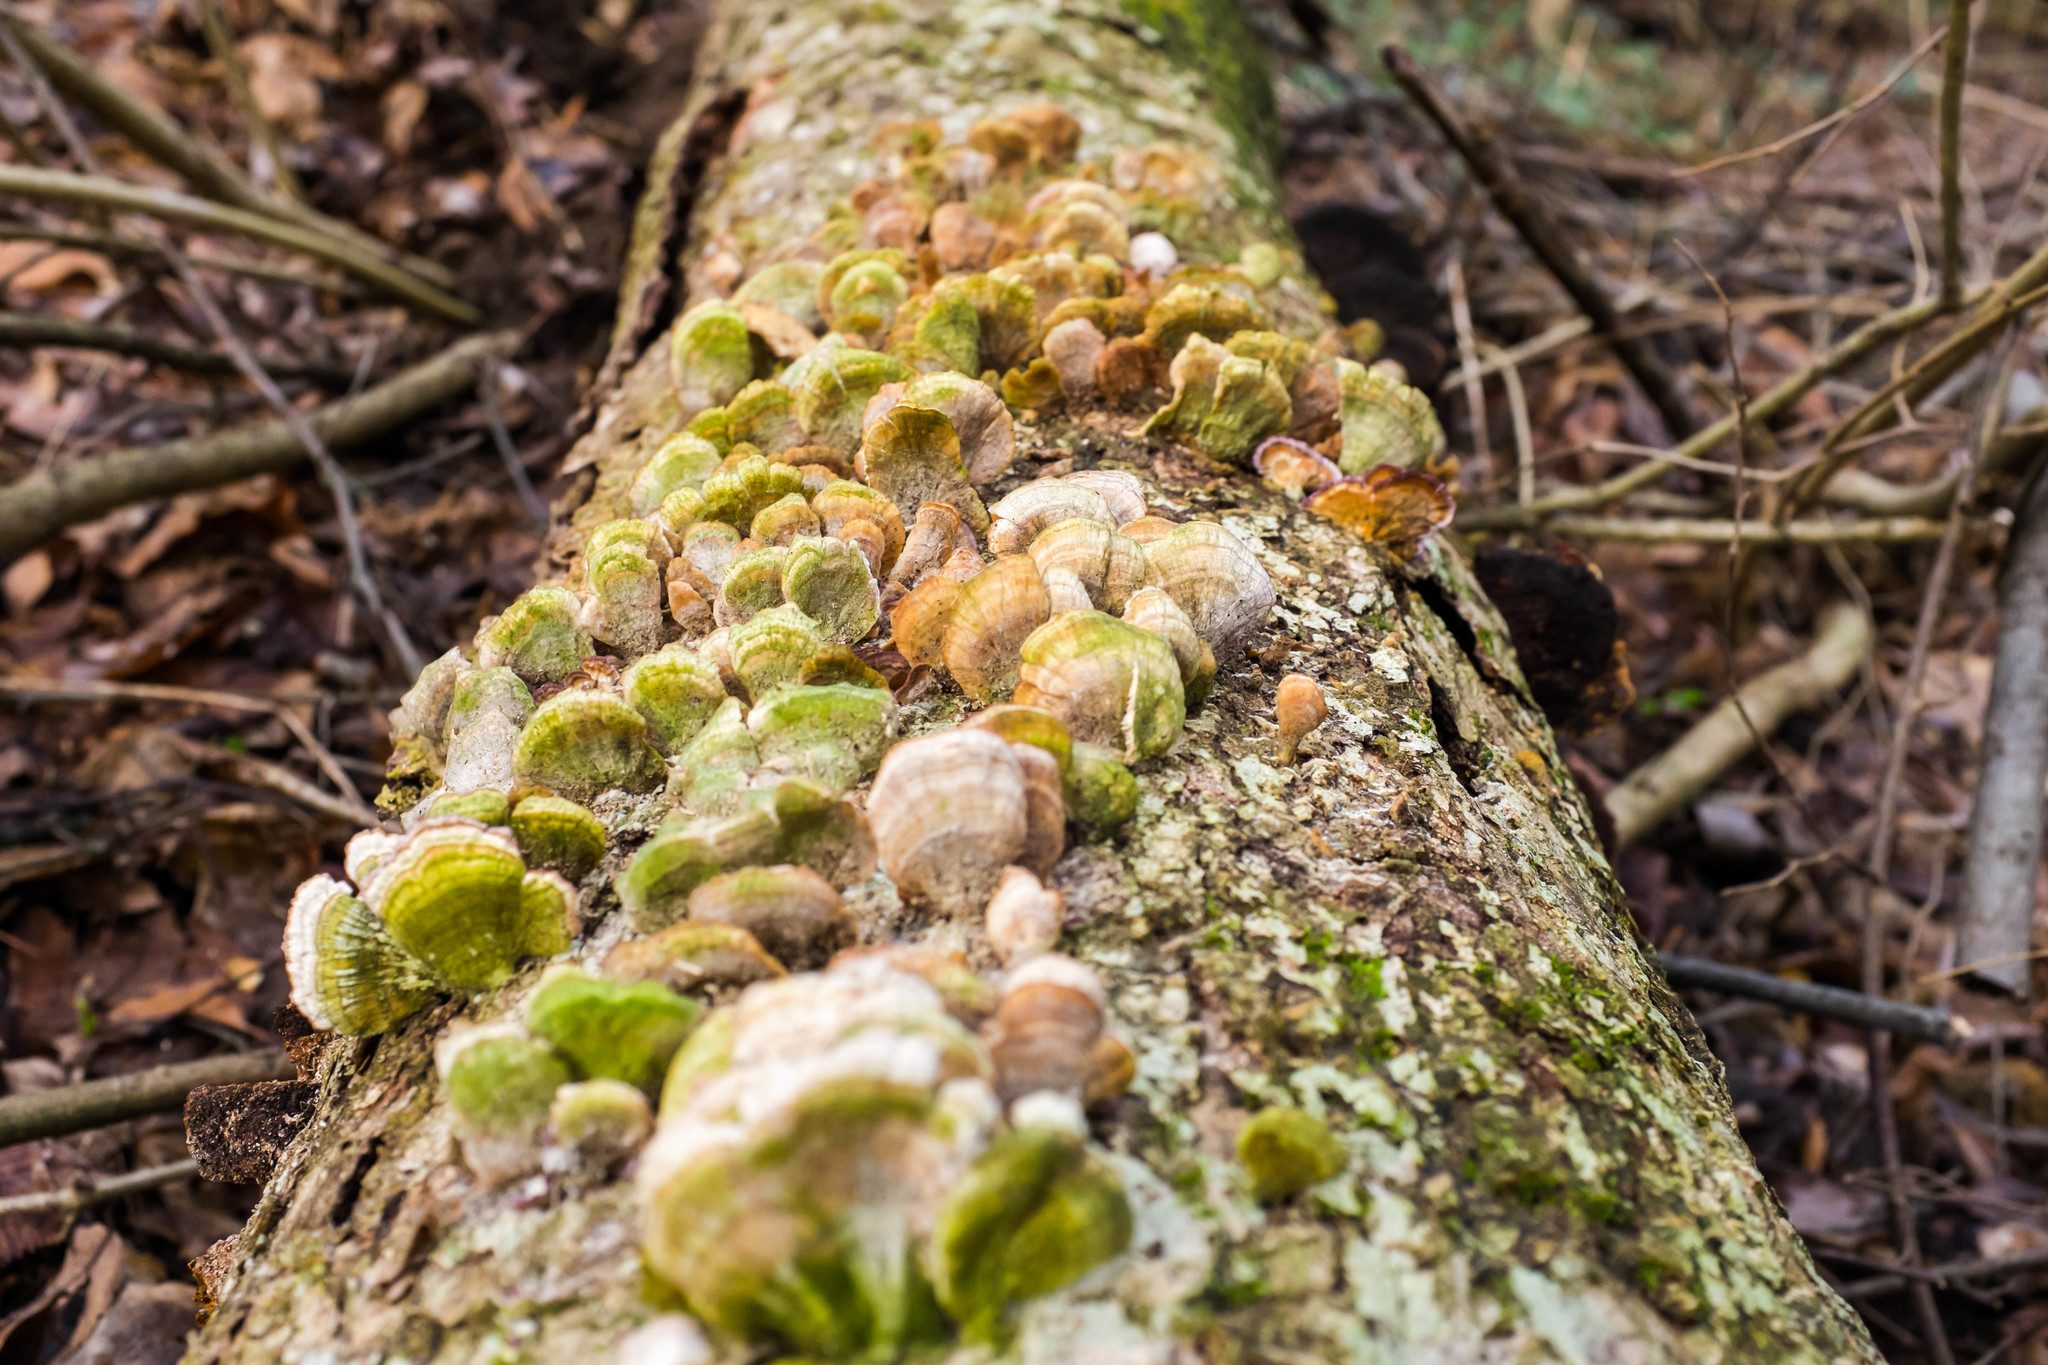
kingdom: Fungi
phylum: Basidiomycota
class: Agaricomycetes
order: Hymenochaetales
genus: Trichaptum
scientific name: Trichaptum biforme
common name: Violet-toothed polypore
